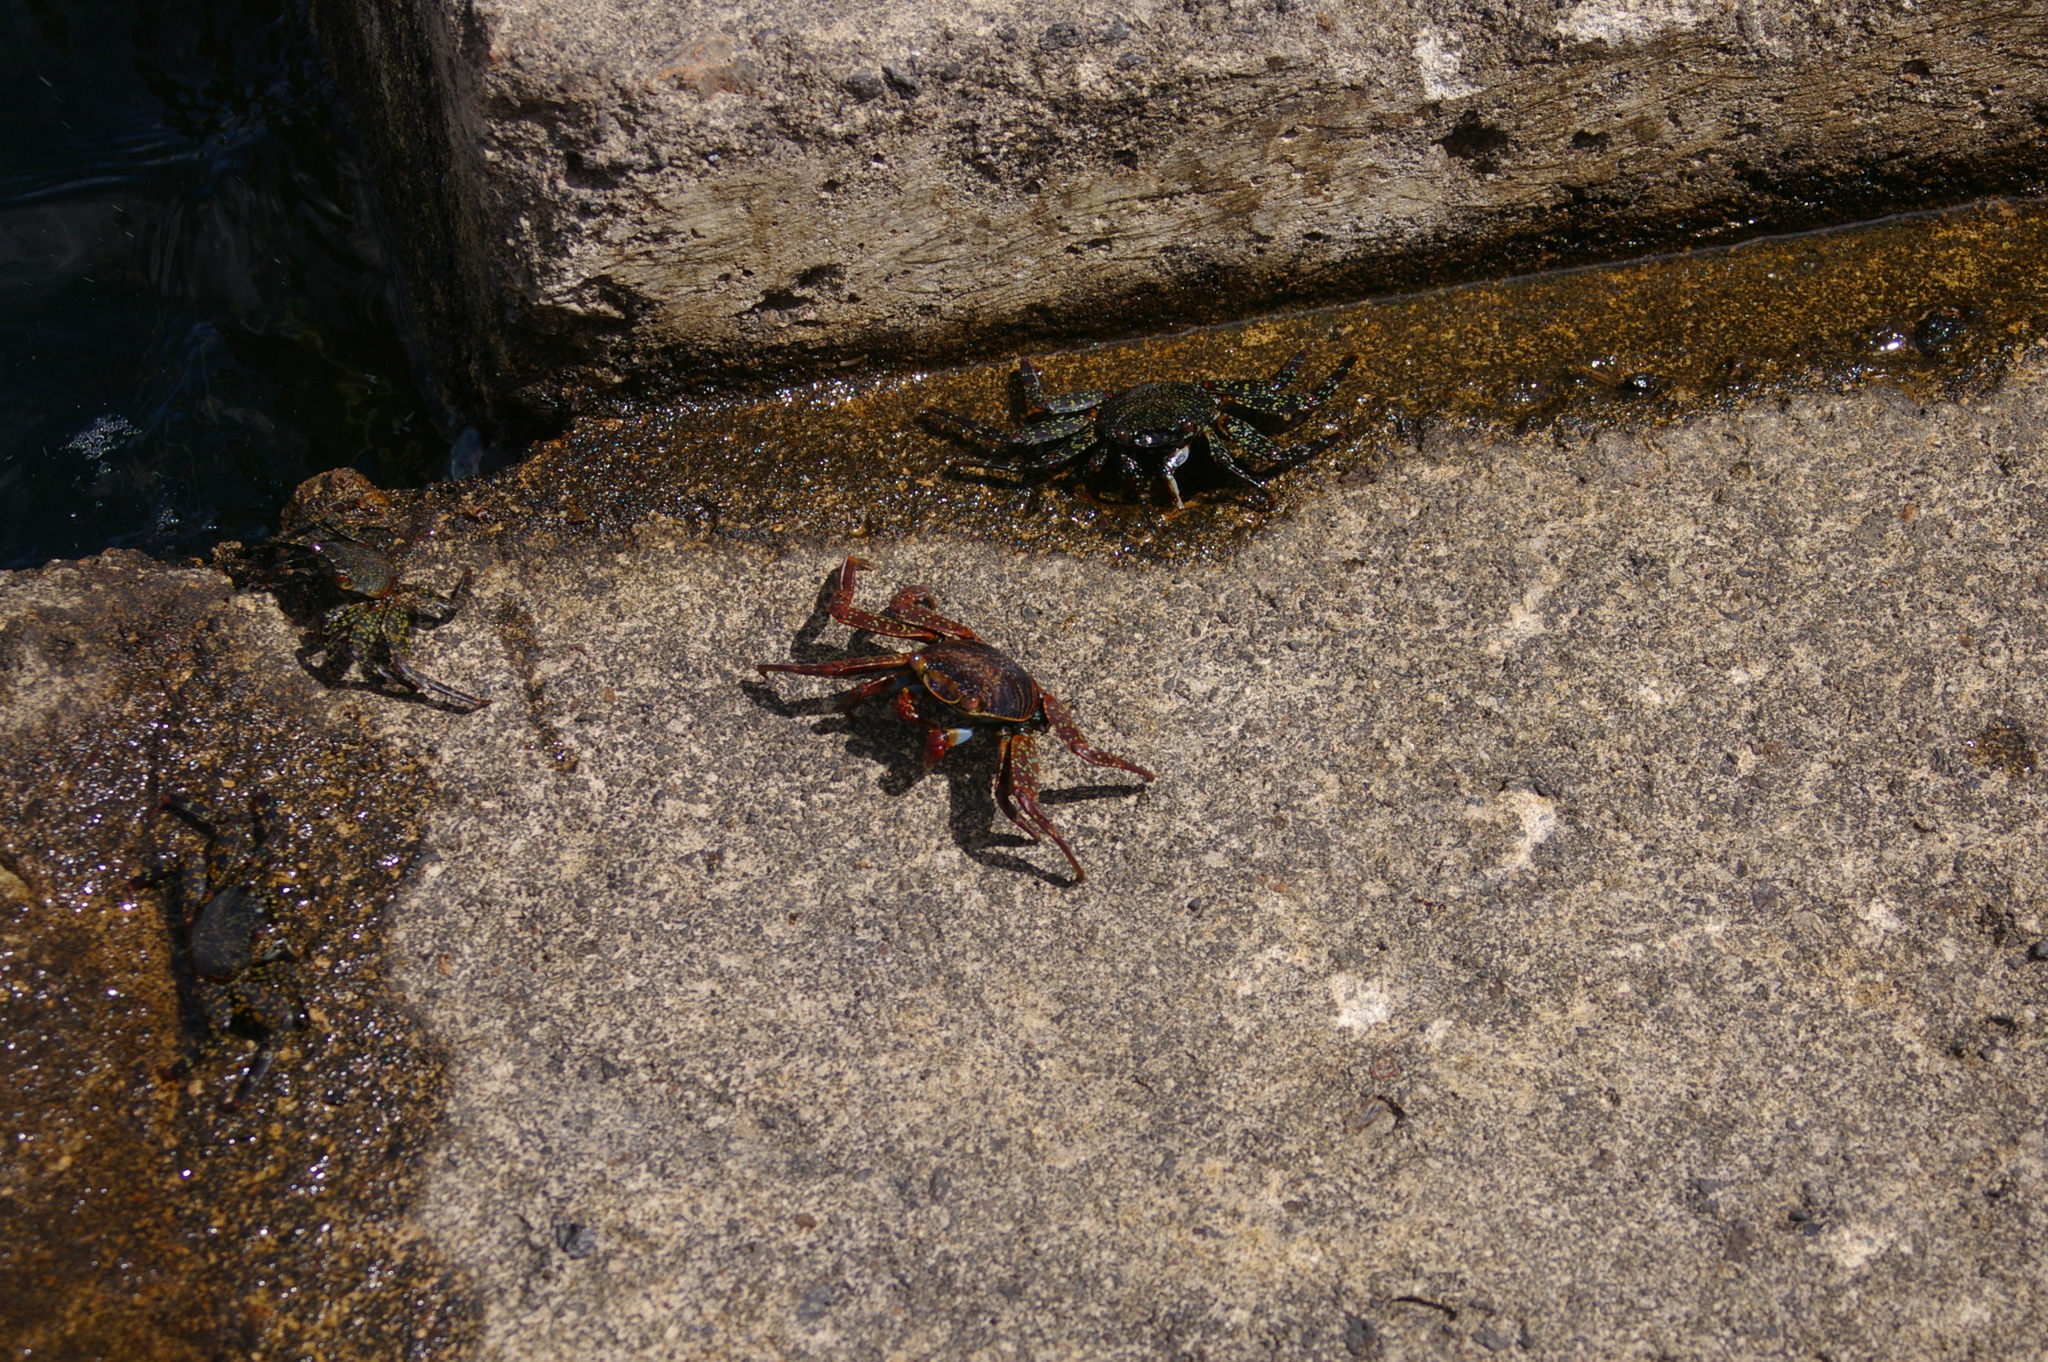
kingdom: Animalia
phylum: Arthropoda
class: Malacostraca
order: Decapoda
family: Grapsidae
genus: Grapsus
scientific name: Grapsus grapsus
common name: Sally lightfoot
